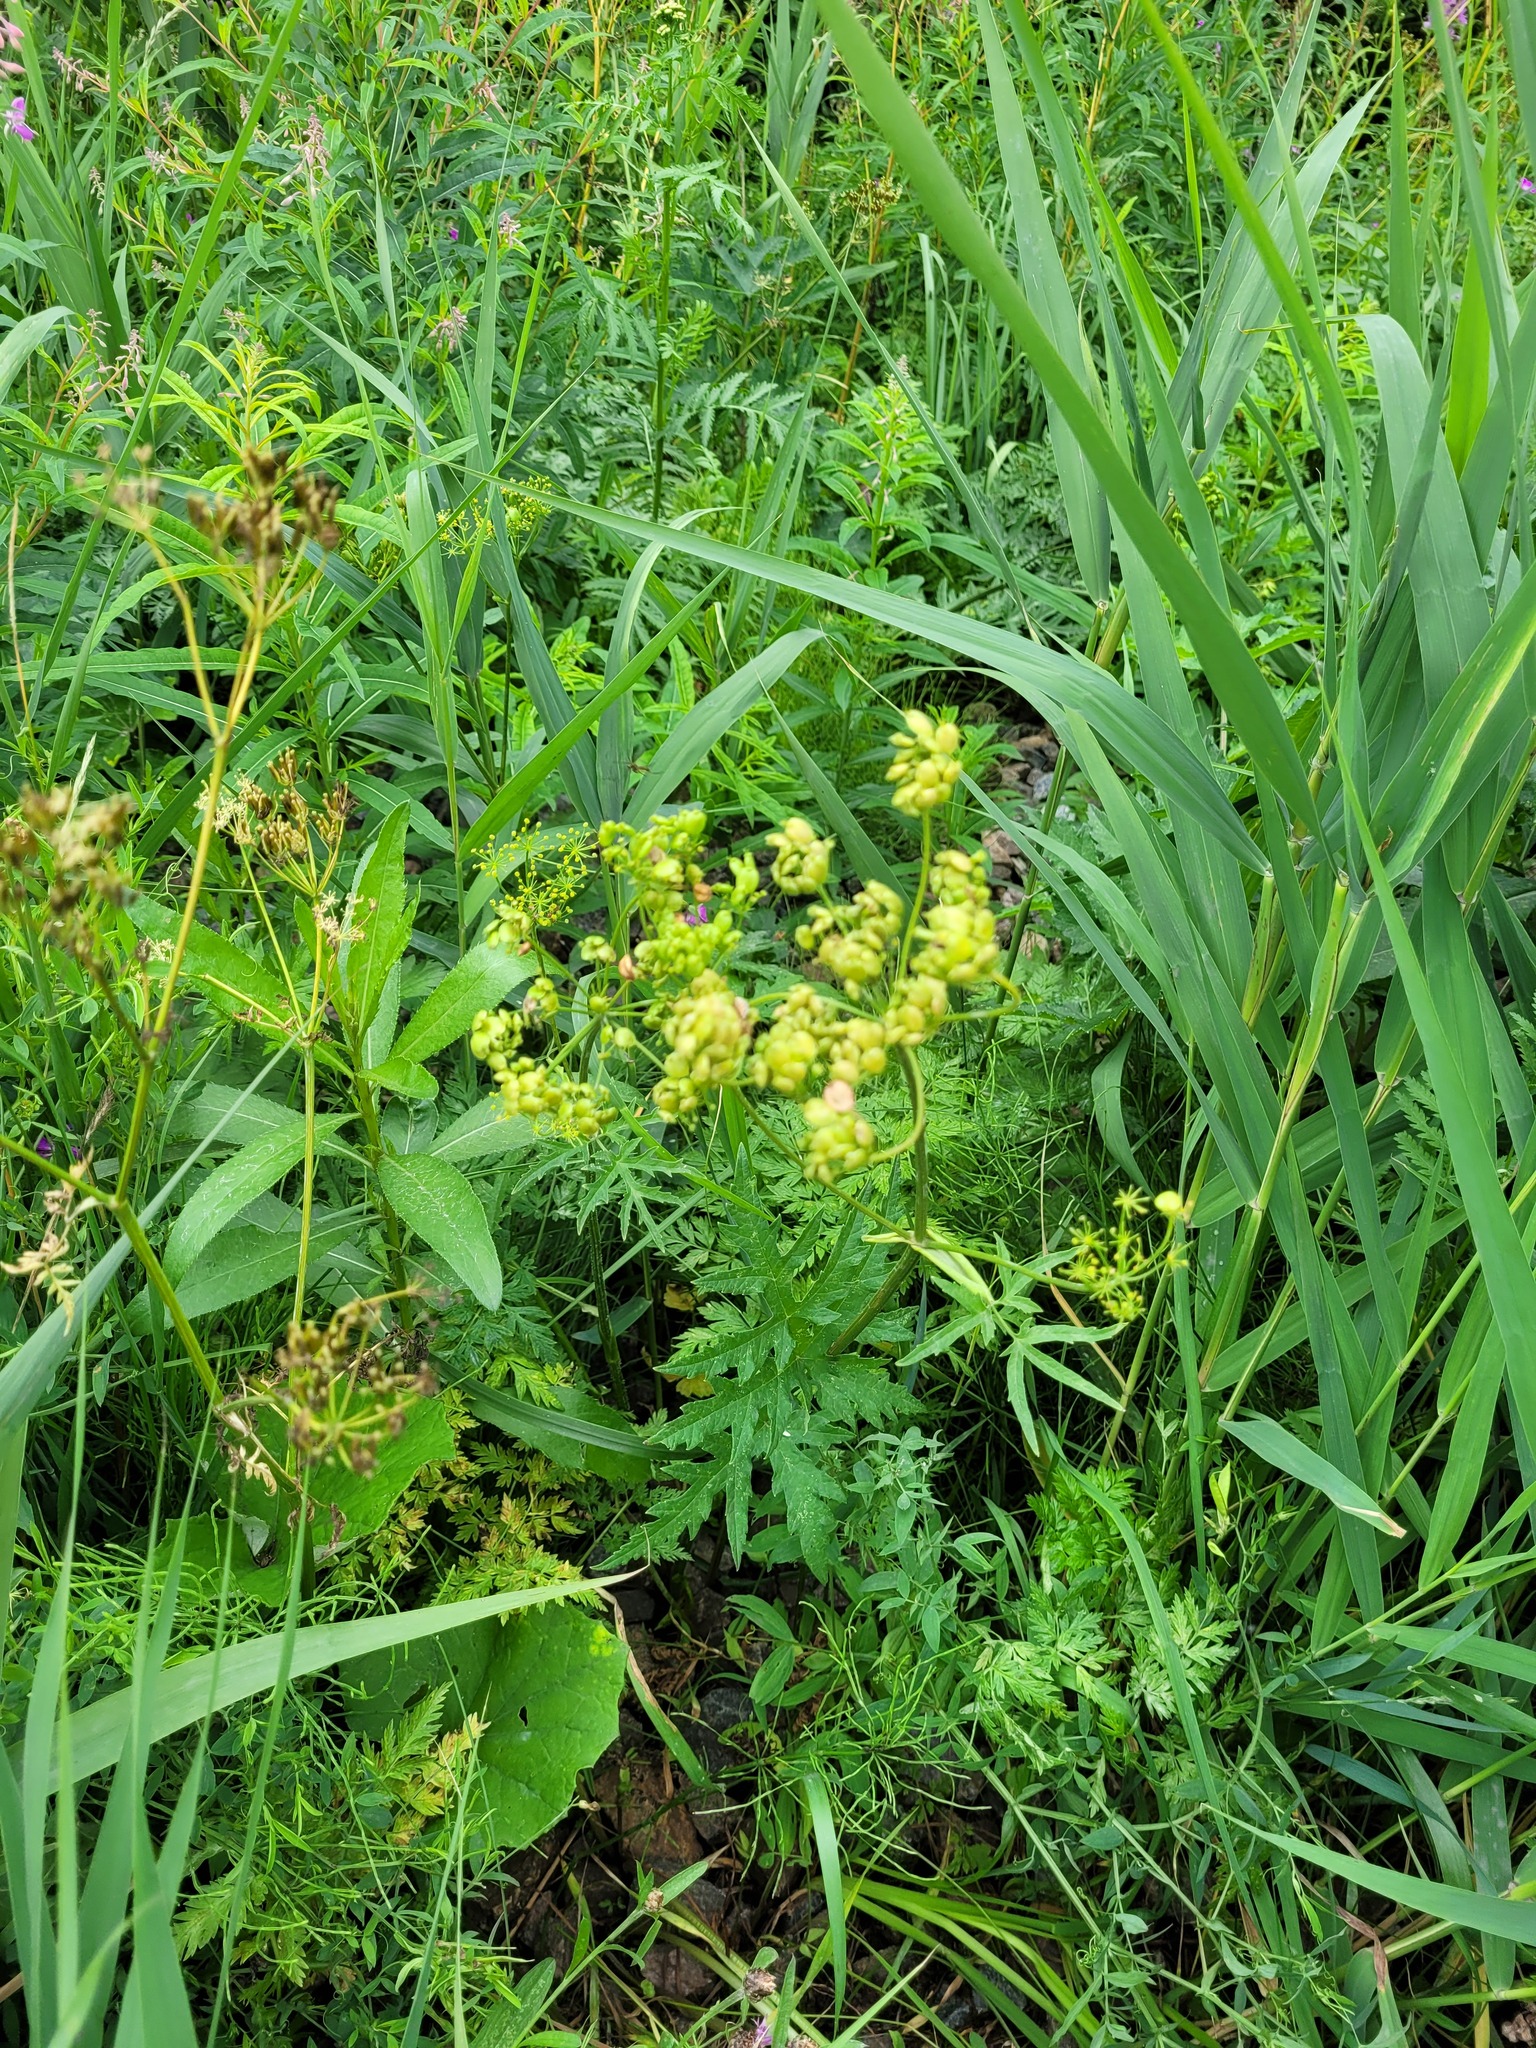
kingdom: Plantae
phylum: Tracheophyta
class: Magnoliopsida
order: Apiales
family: Apiaceae
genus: Heracleum
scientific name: Heracleum sphondylium
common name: Hogweed
